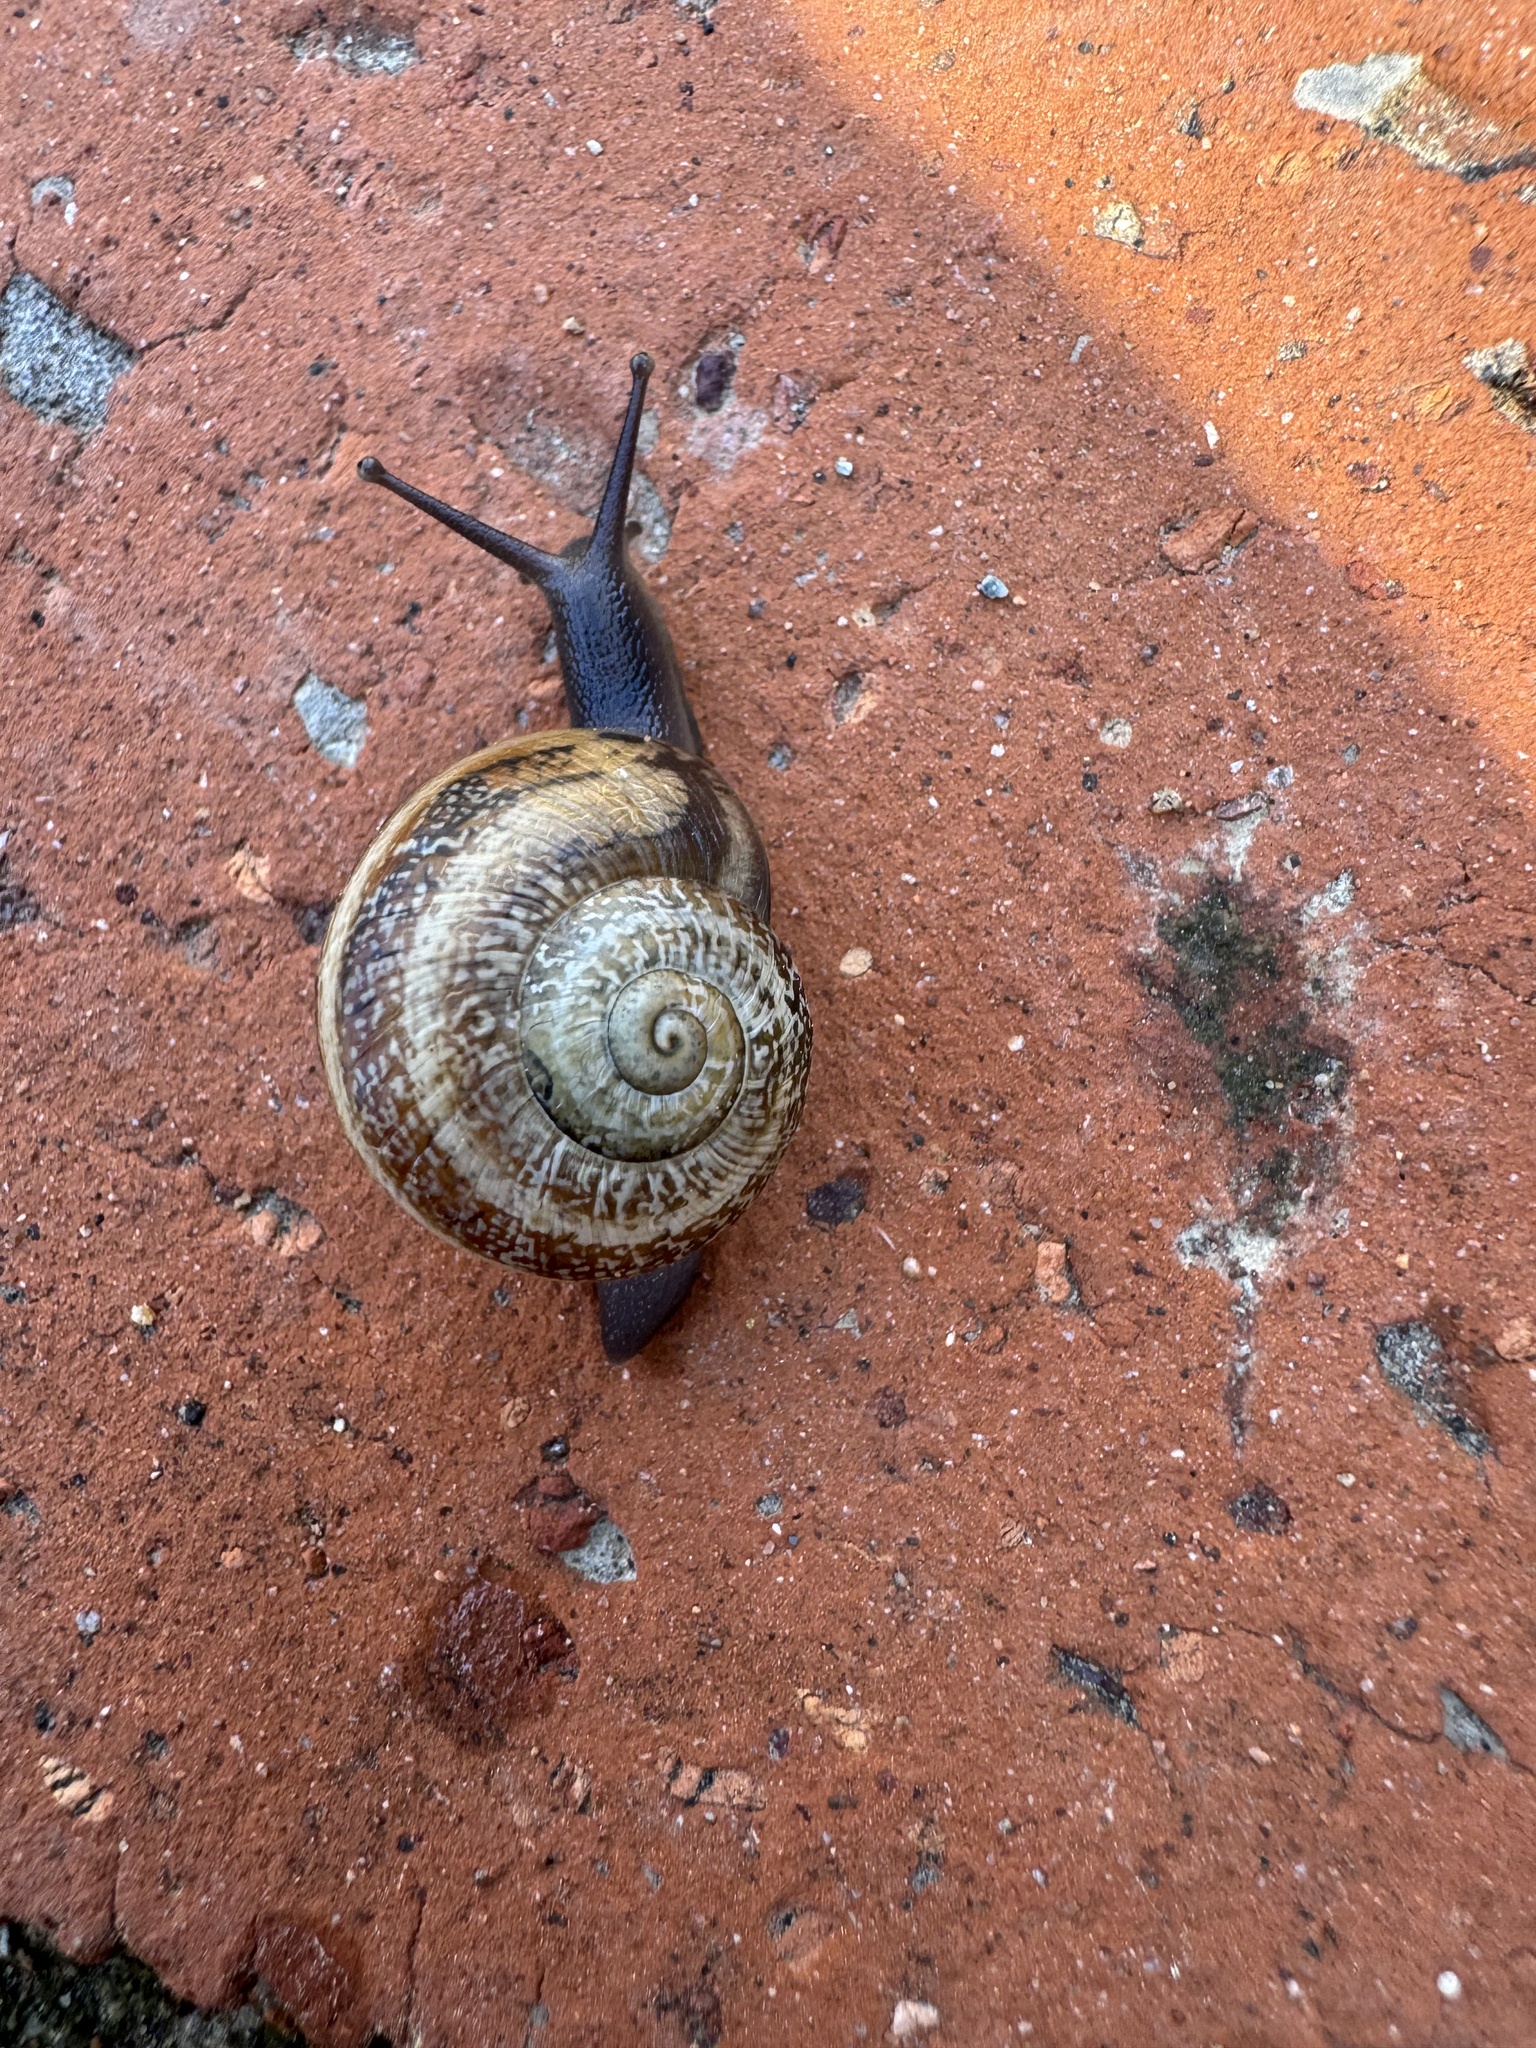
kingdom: Animalia
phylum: Mollusca
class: Gastropoda
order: Stylommatophora
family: Helicidae
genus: Otala
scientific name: Otala lactea
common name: Milk snail
